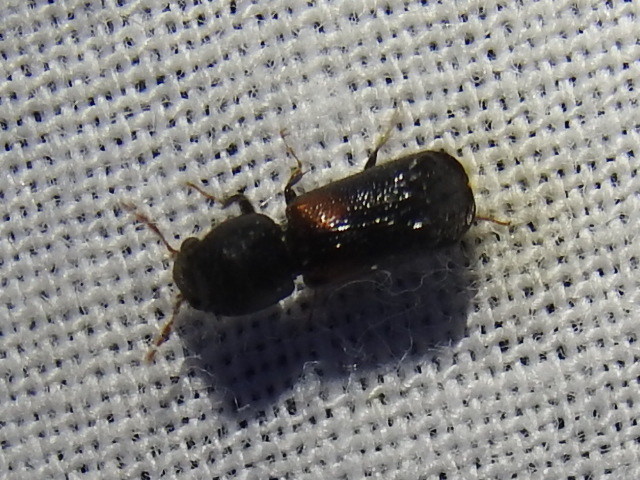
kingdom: Animalia
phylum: Arthropoda
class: Insecta
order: Coleoptera
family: Bostrichidae
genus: Xylobiops
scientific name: Xylobiops basilaris
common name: Red-shouldered bostrichid
